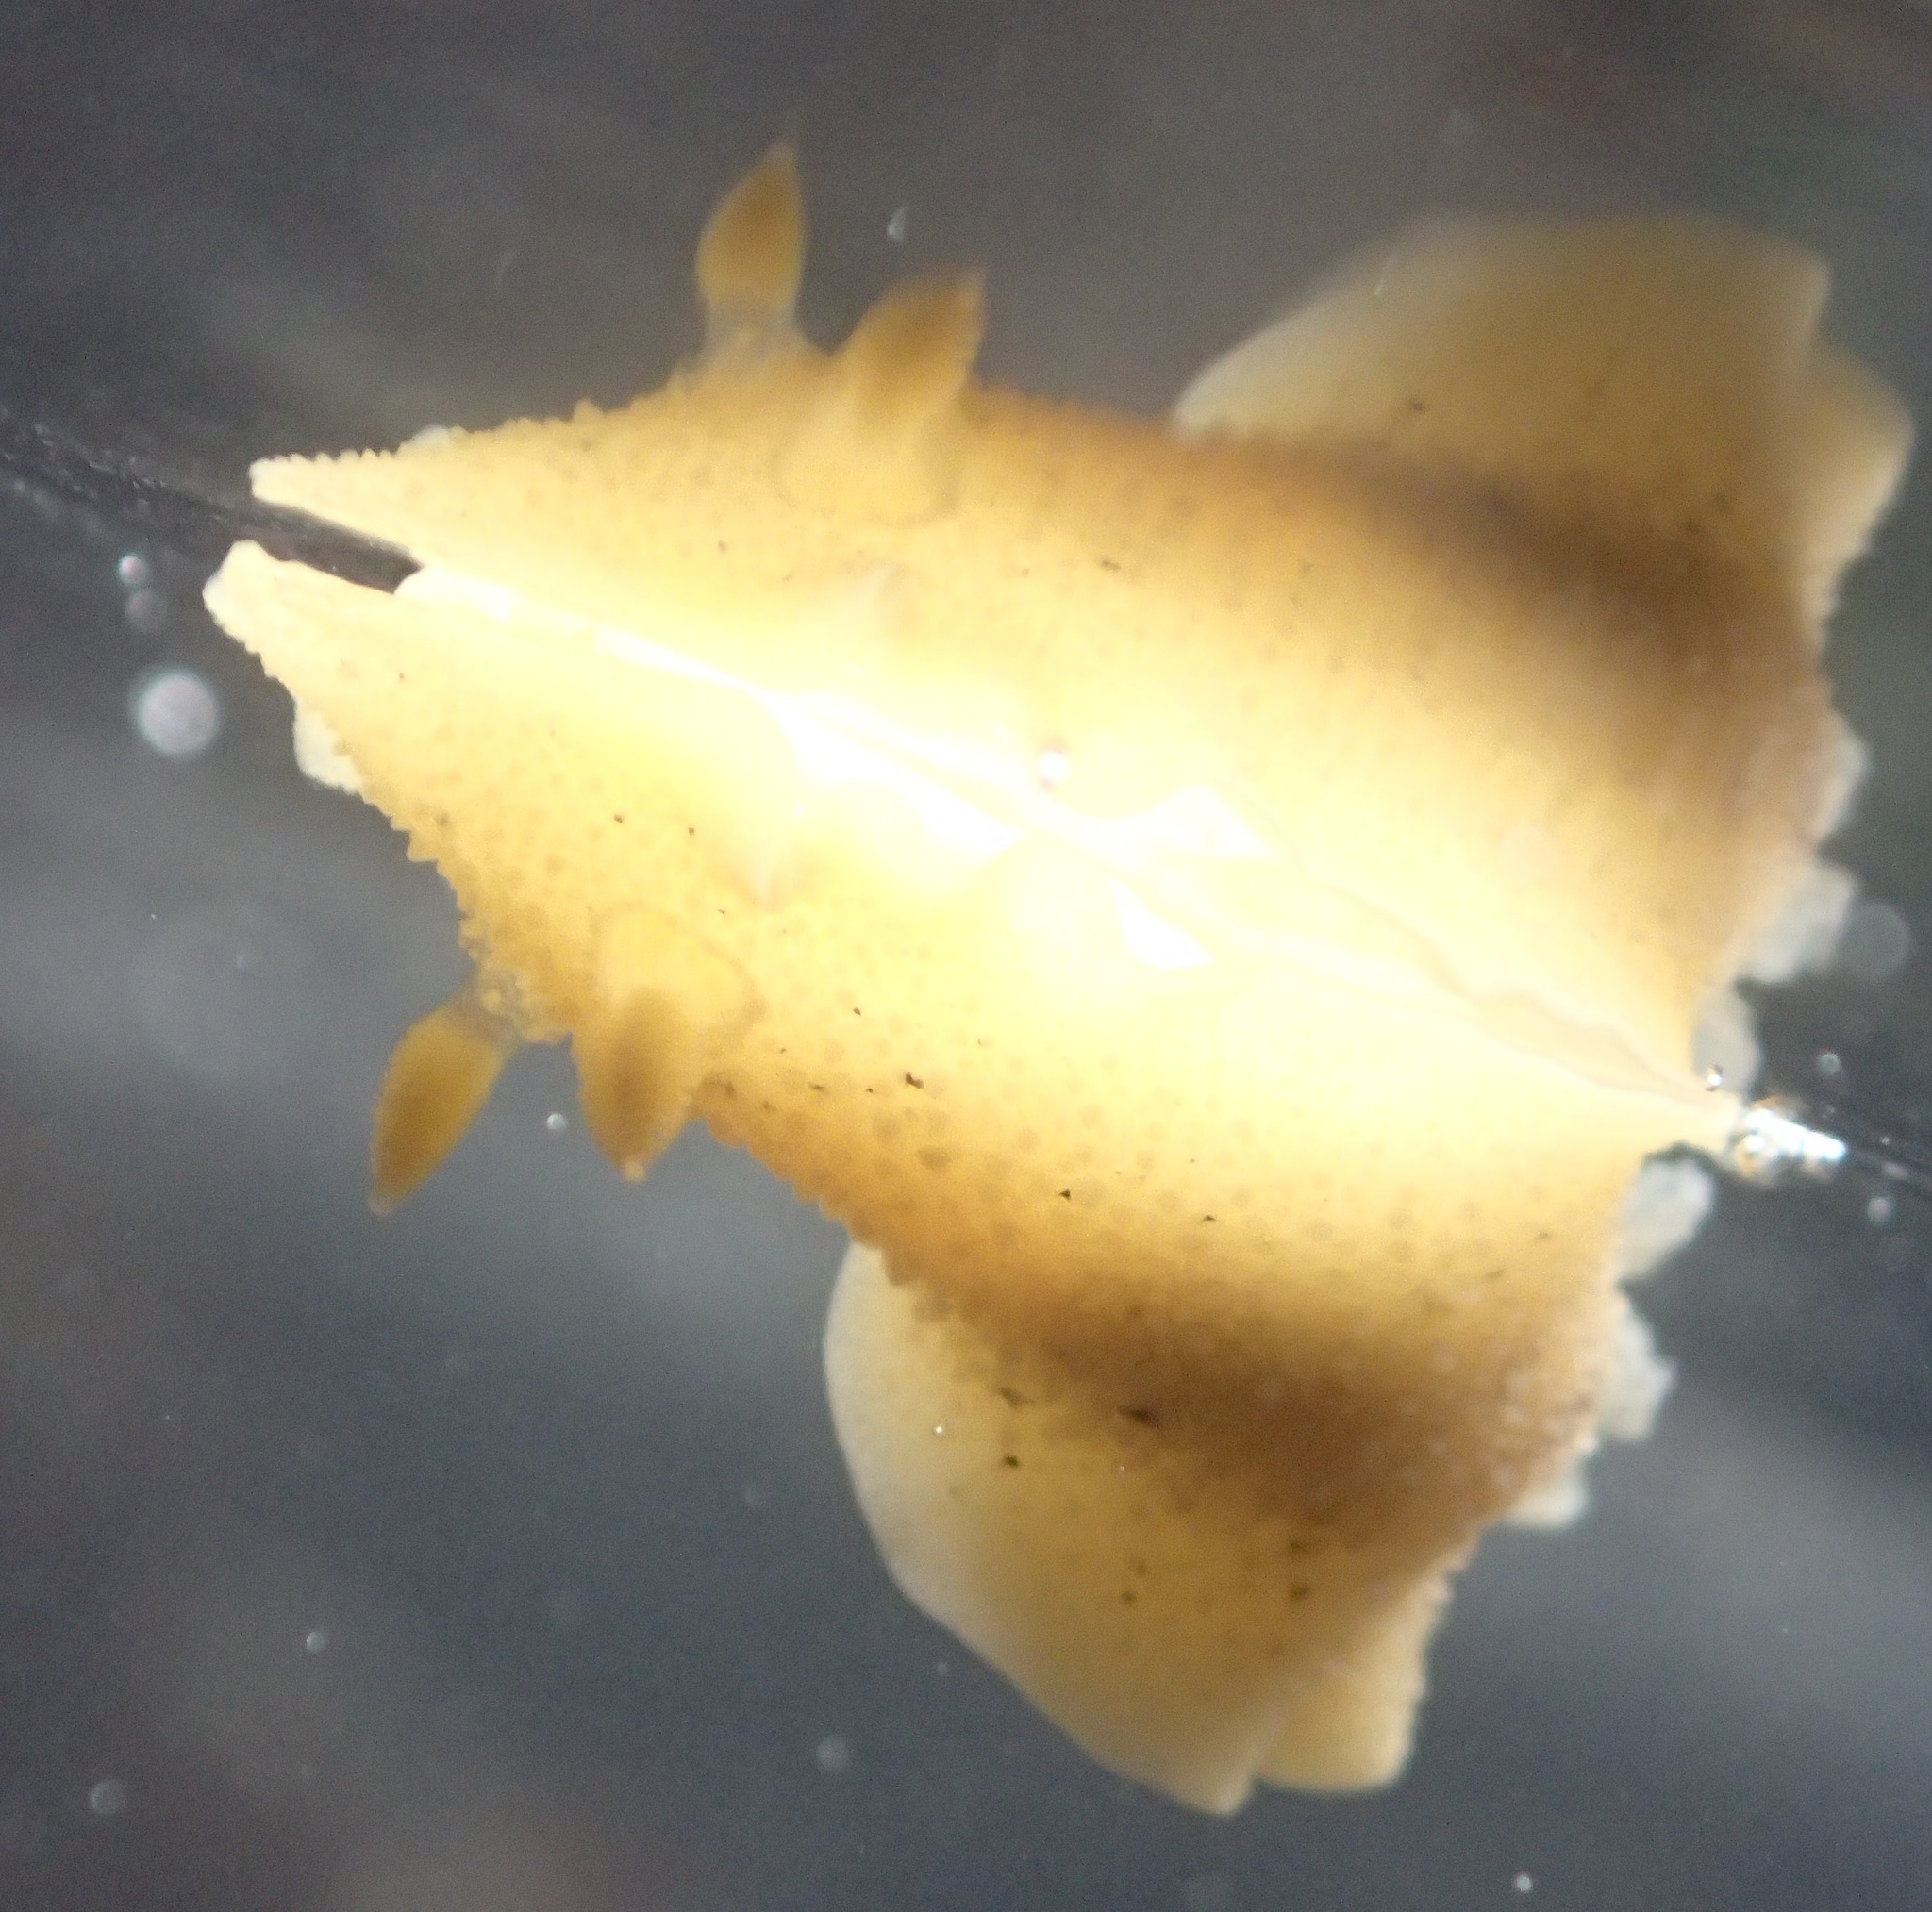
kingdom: Animalia
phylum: Mollusca
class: Gastropoda
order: Nudibranchia
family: Discodorididae
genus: Geitodoris
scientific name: Geitodoris heathi
